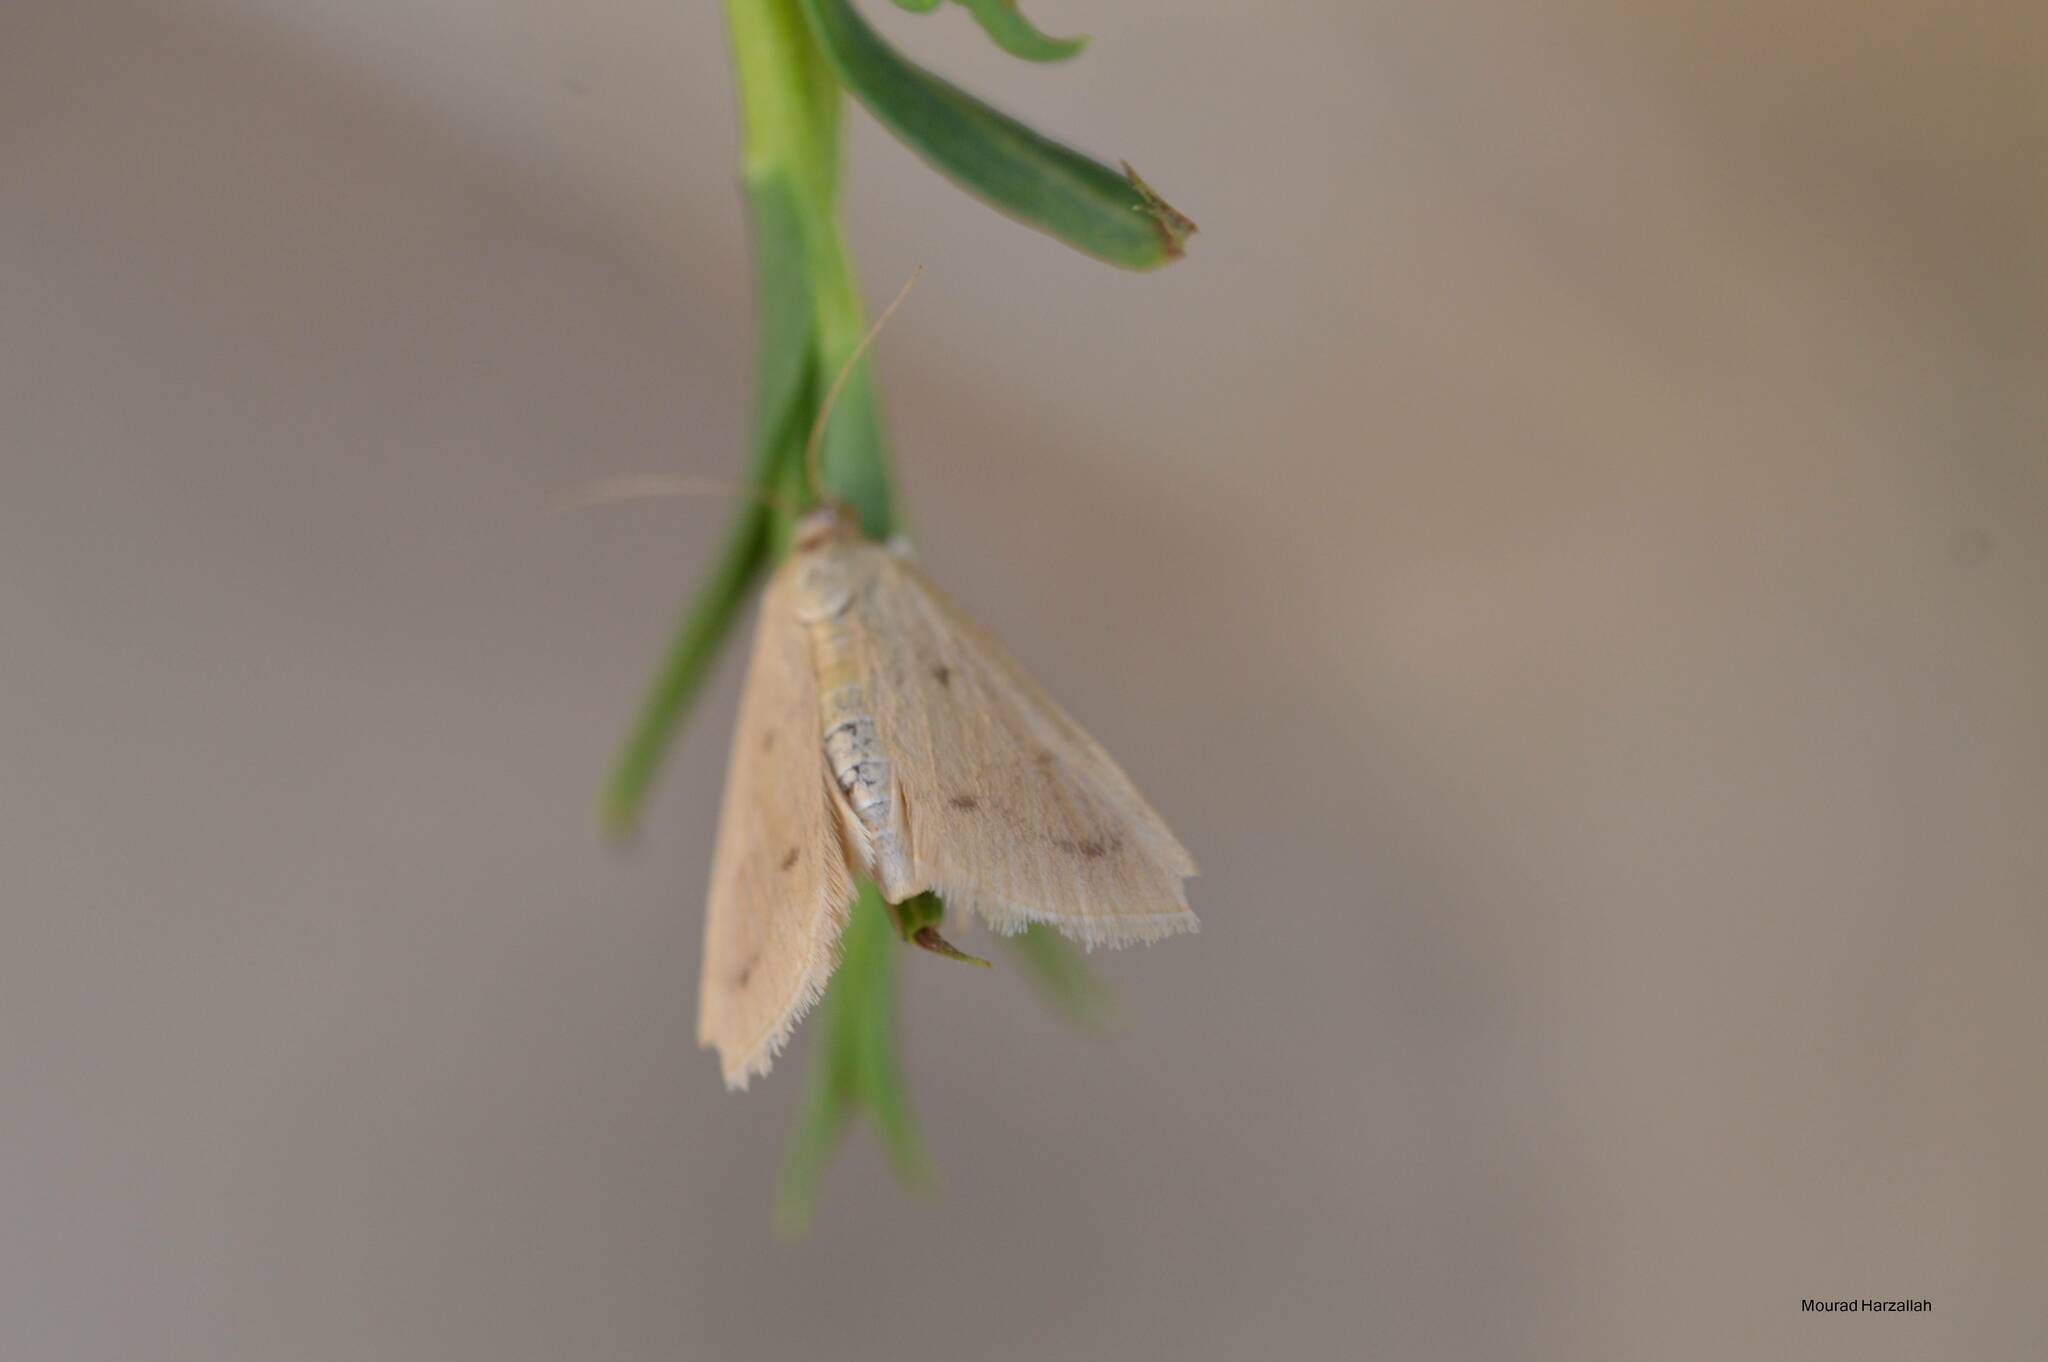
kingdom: Animalia
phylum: Arthropoda
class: Insecta
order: Lepidoptera
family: Crambidae
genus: Achyra
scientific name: Achyra nudalis
